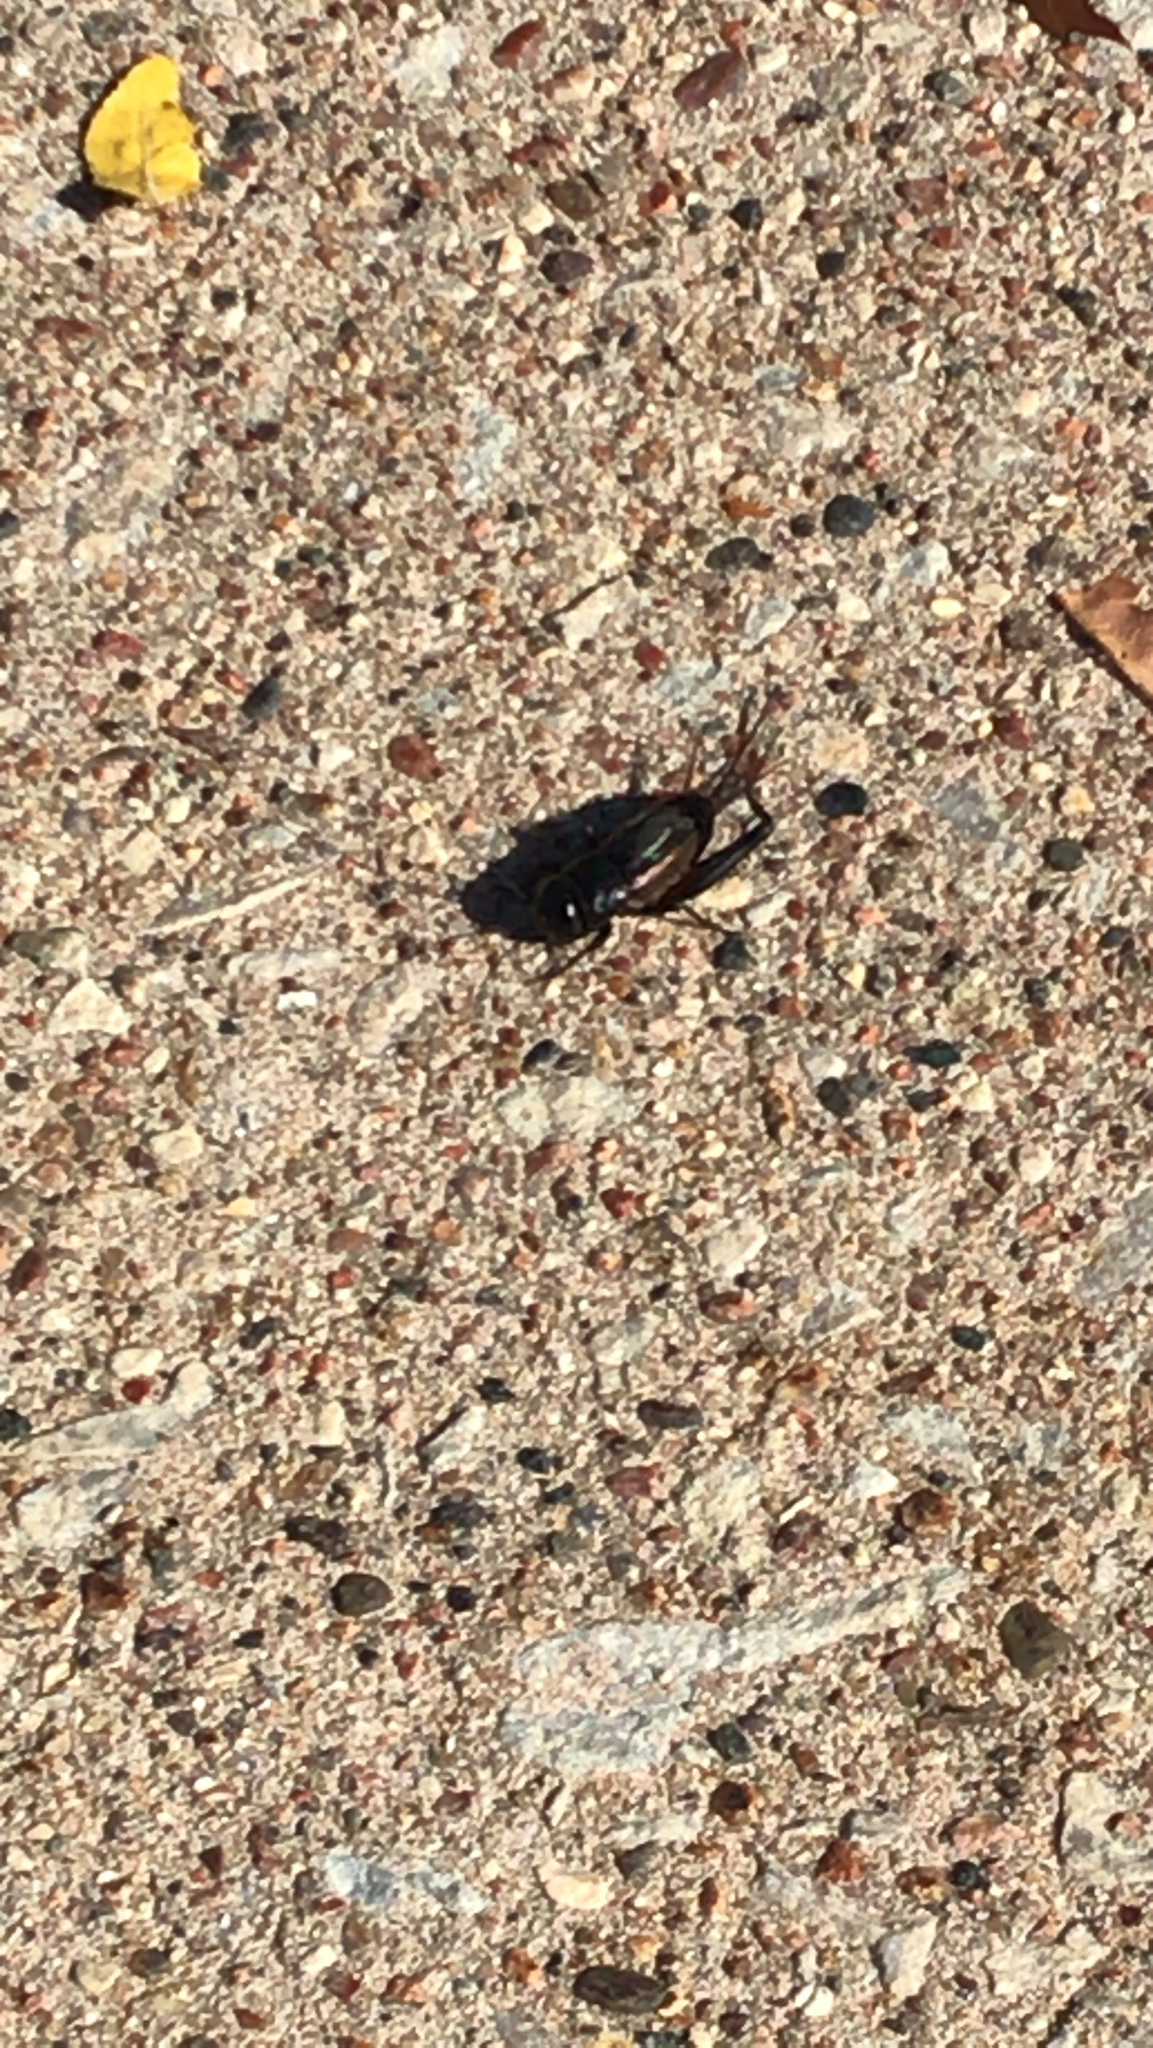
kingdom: Animalia
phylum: Arthropoda
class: Insecta
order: Orthoptera
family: Gryllidae
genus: Gryllus
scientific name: Gryllus pennsylvanicus
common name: Fall field cricket
